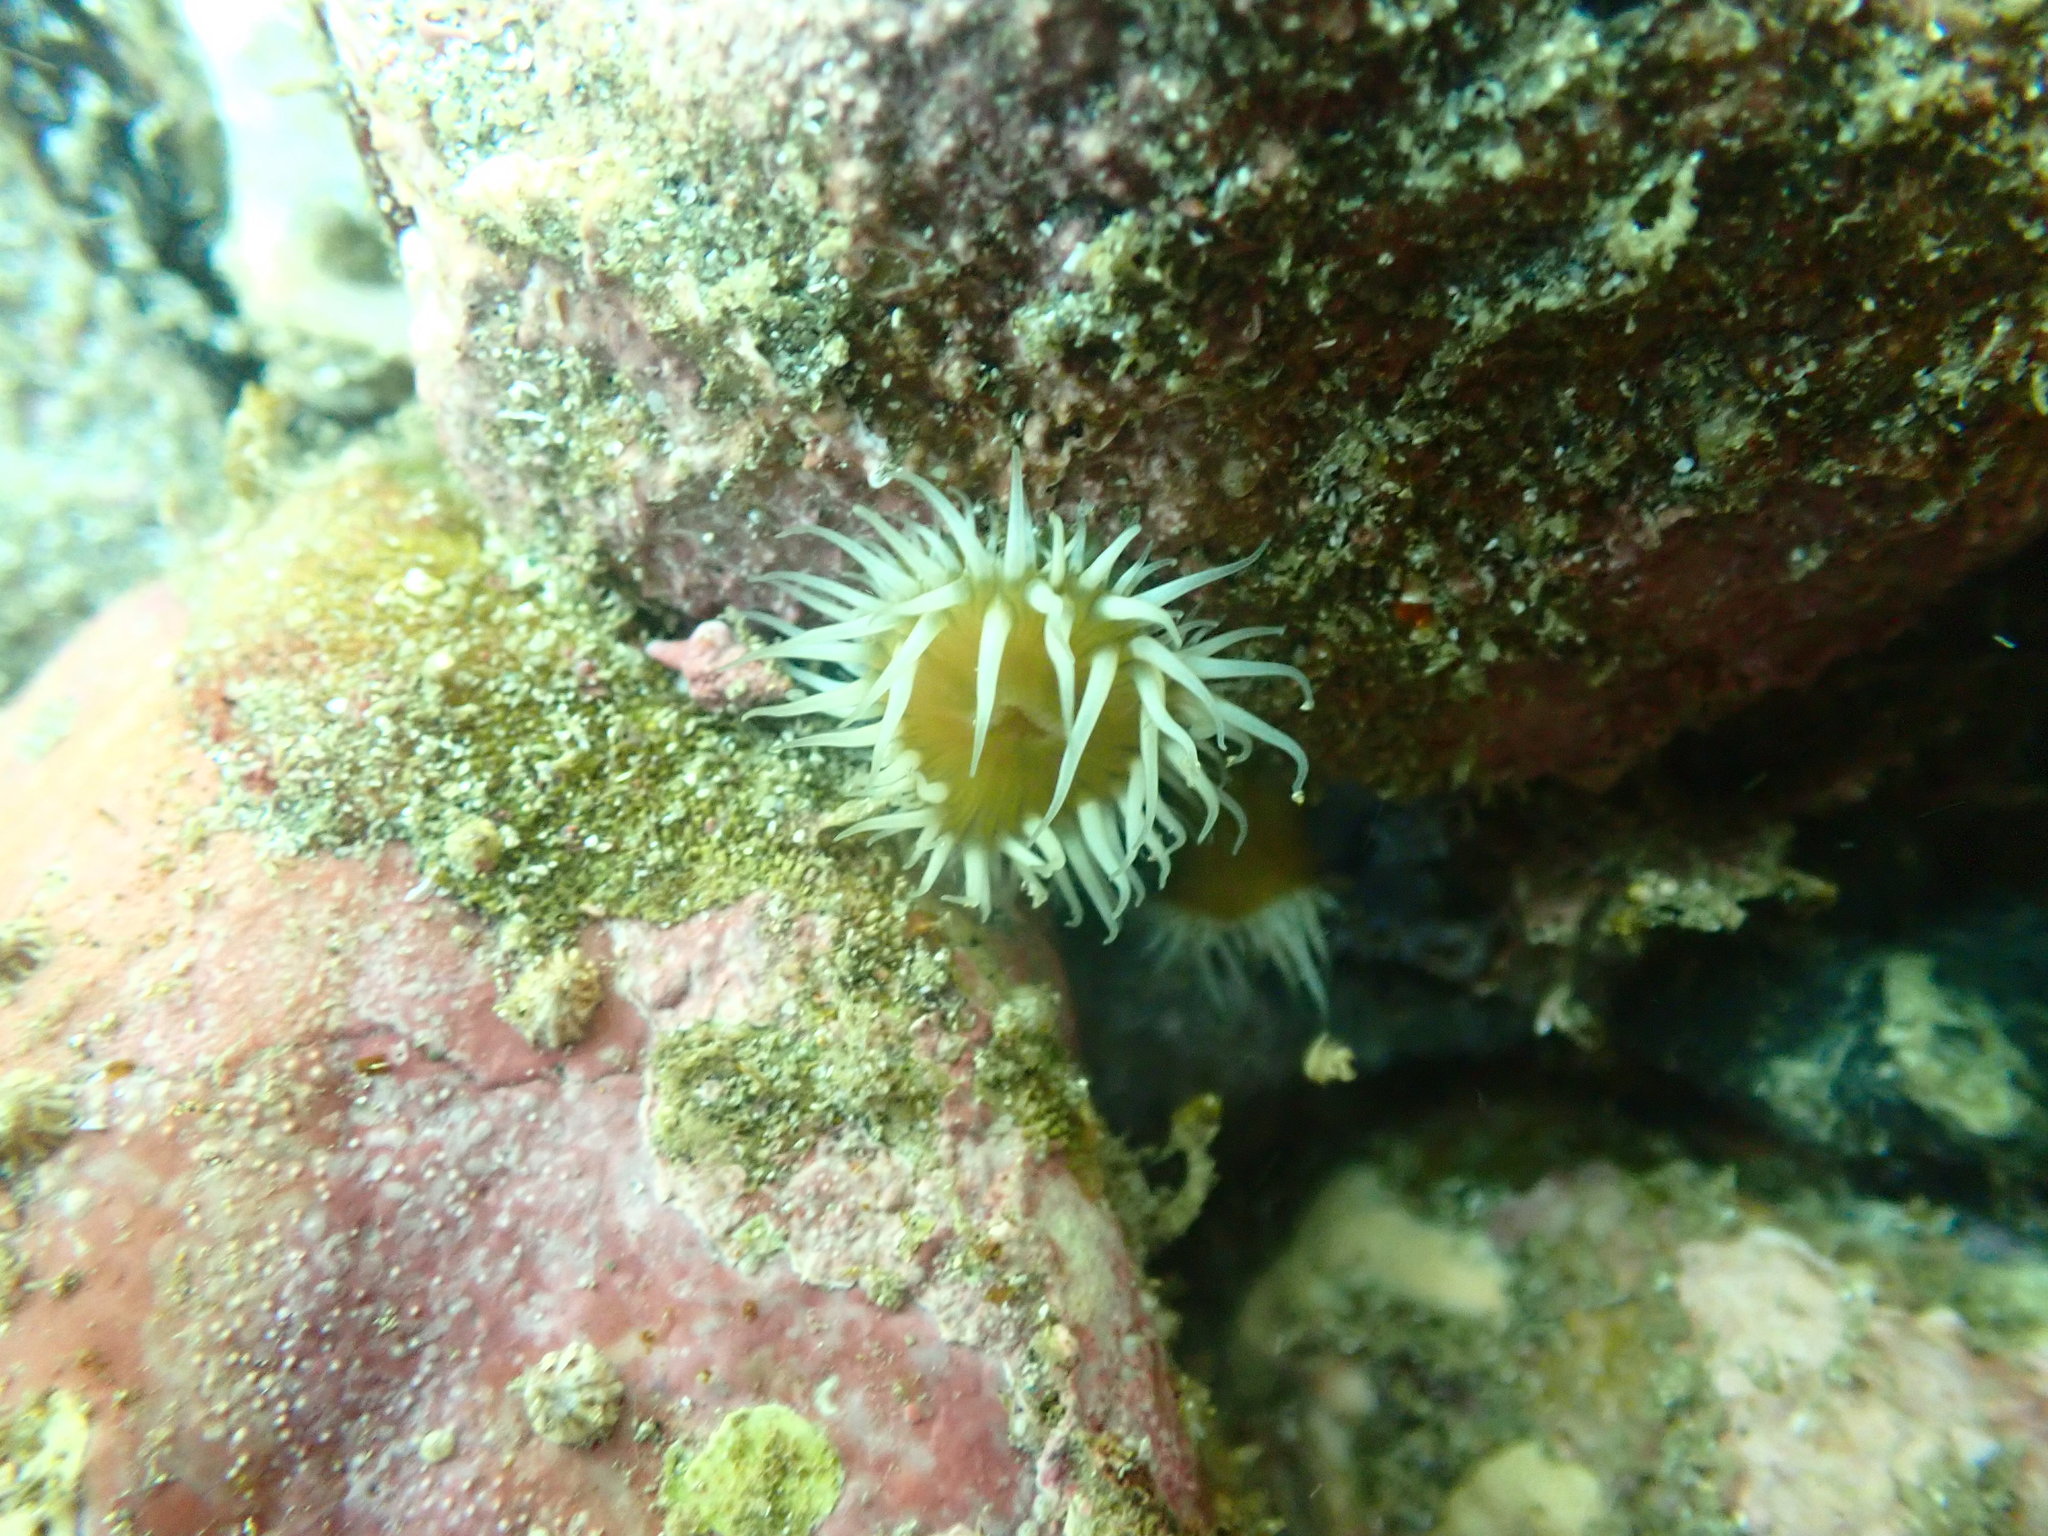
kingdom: Animalia
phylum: Cnidaria
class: Anthozoa
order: Actiniaria
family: Sagartiidae
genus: Anthothoe
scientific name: Anthothoe albocincta
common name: Orange striped anemone
